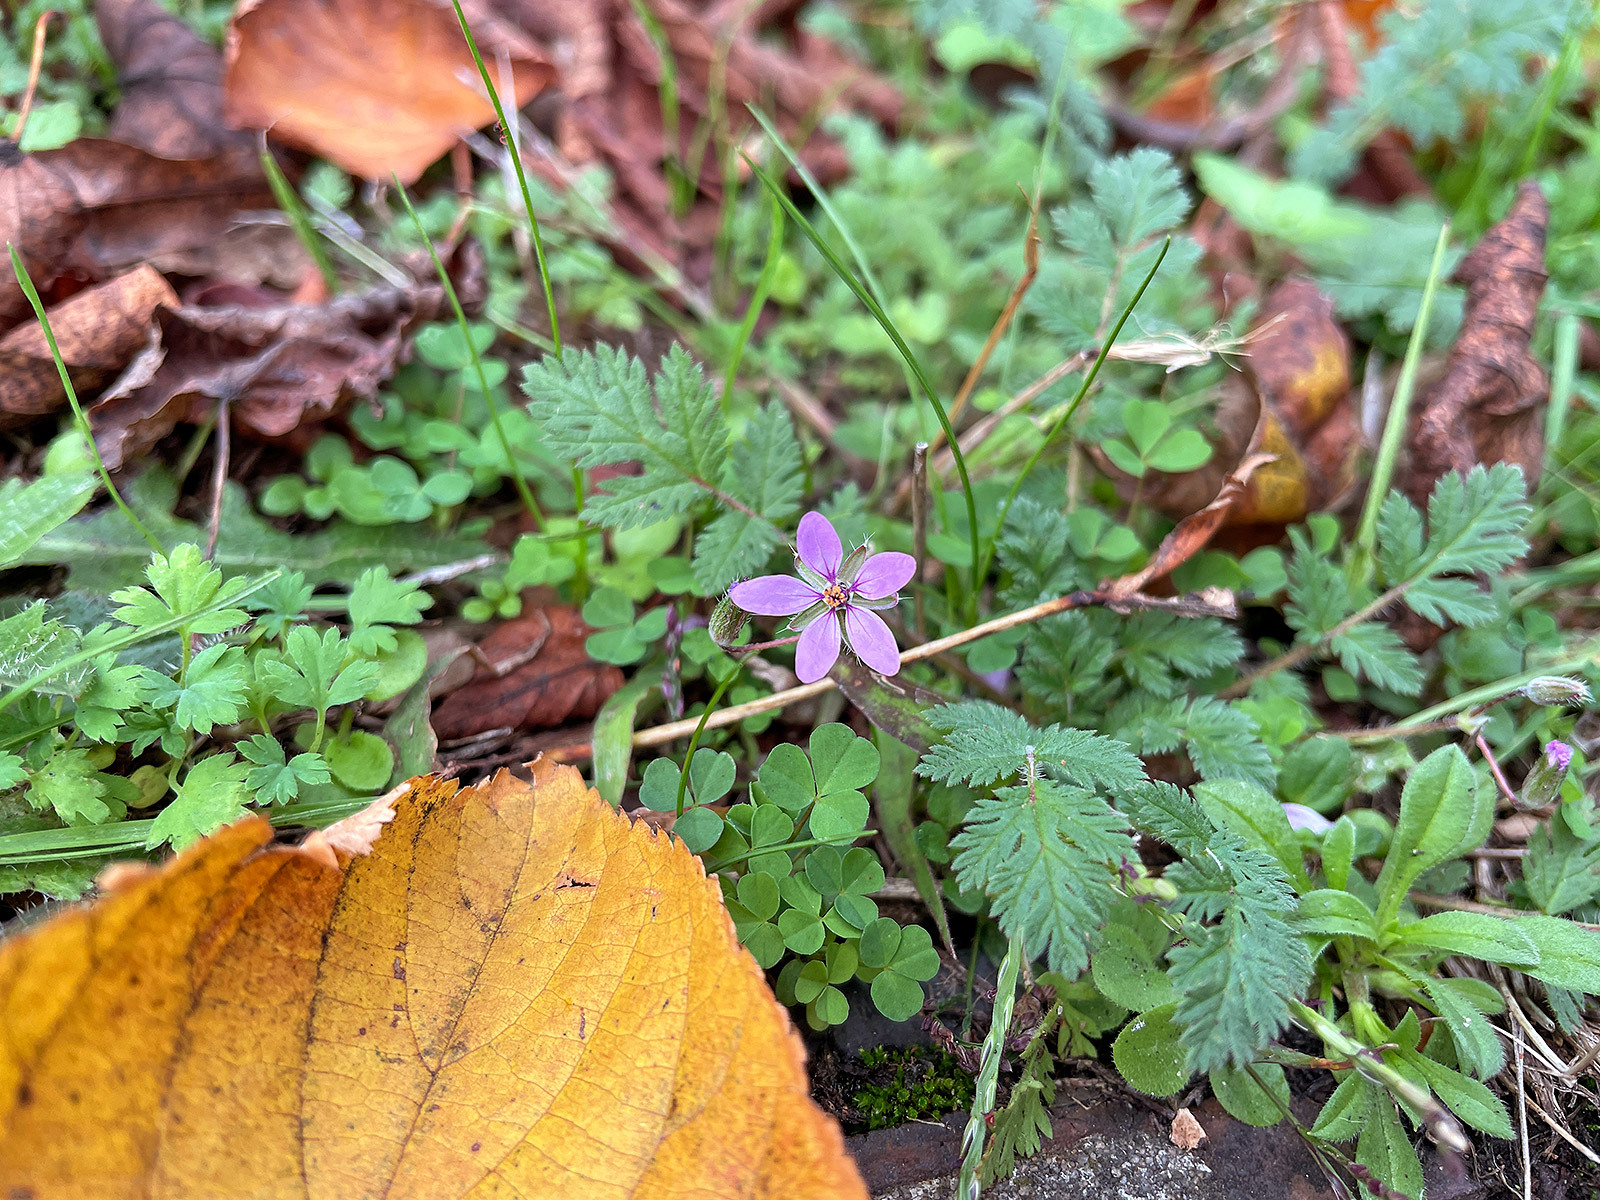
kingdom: Plantae
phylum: Tracheophyta
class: Magnoliopsida
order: Geraniales
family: Geraniaceae
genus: Erodium
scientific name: Erodium cicutarium
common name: Common stork's-bill
